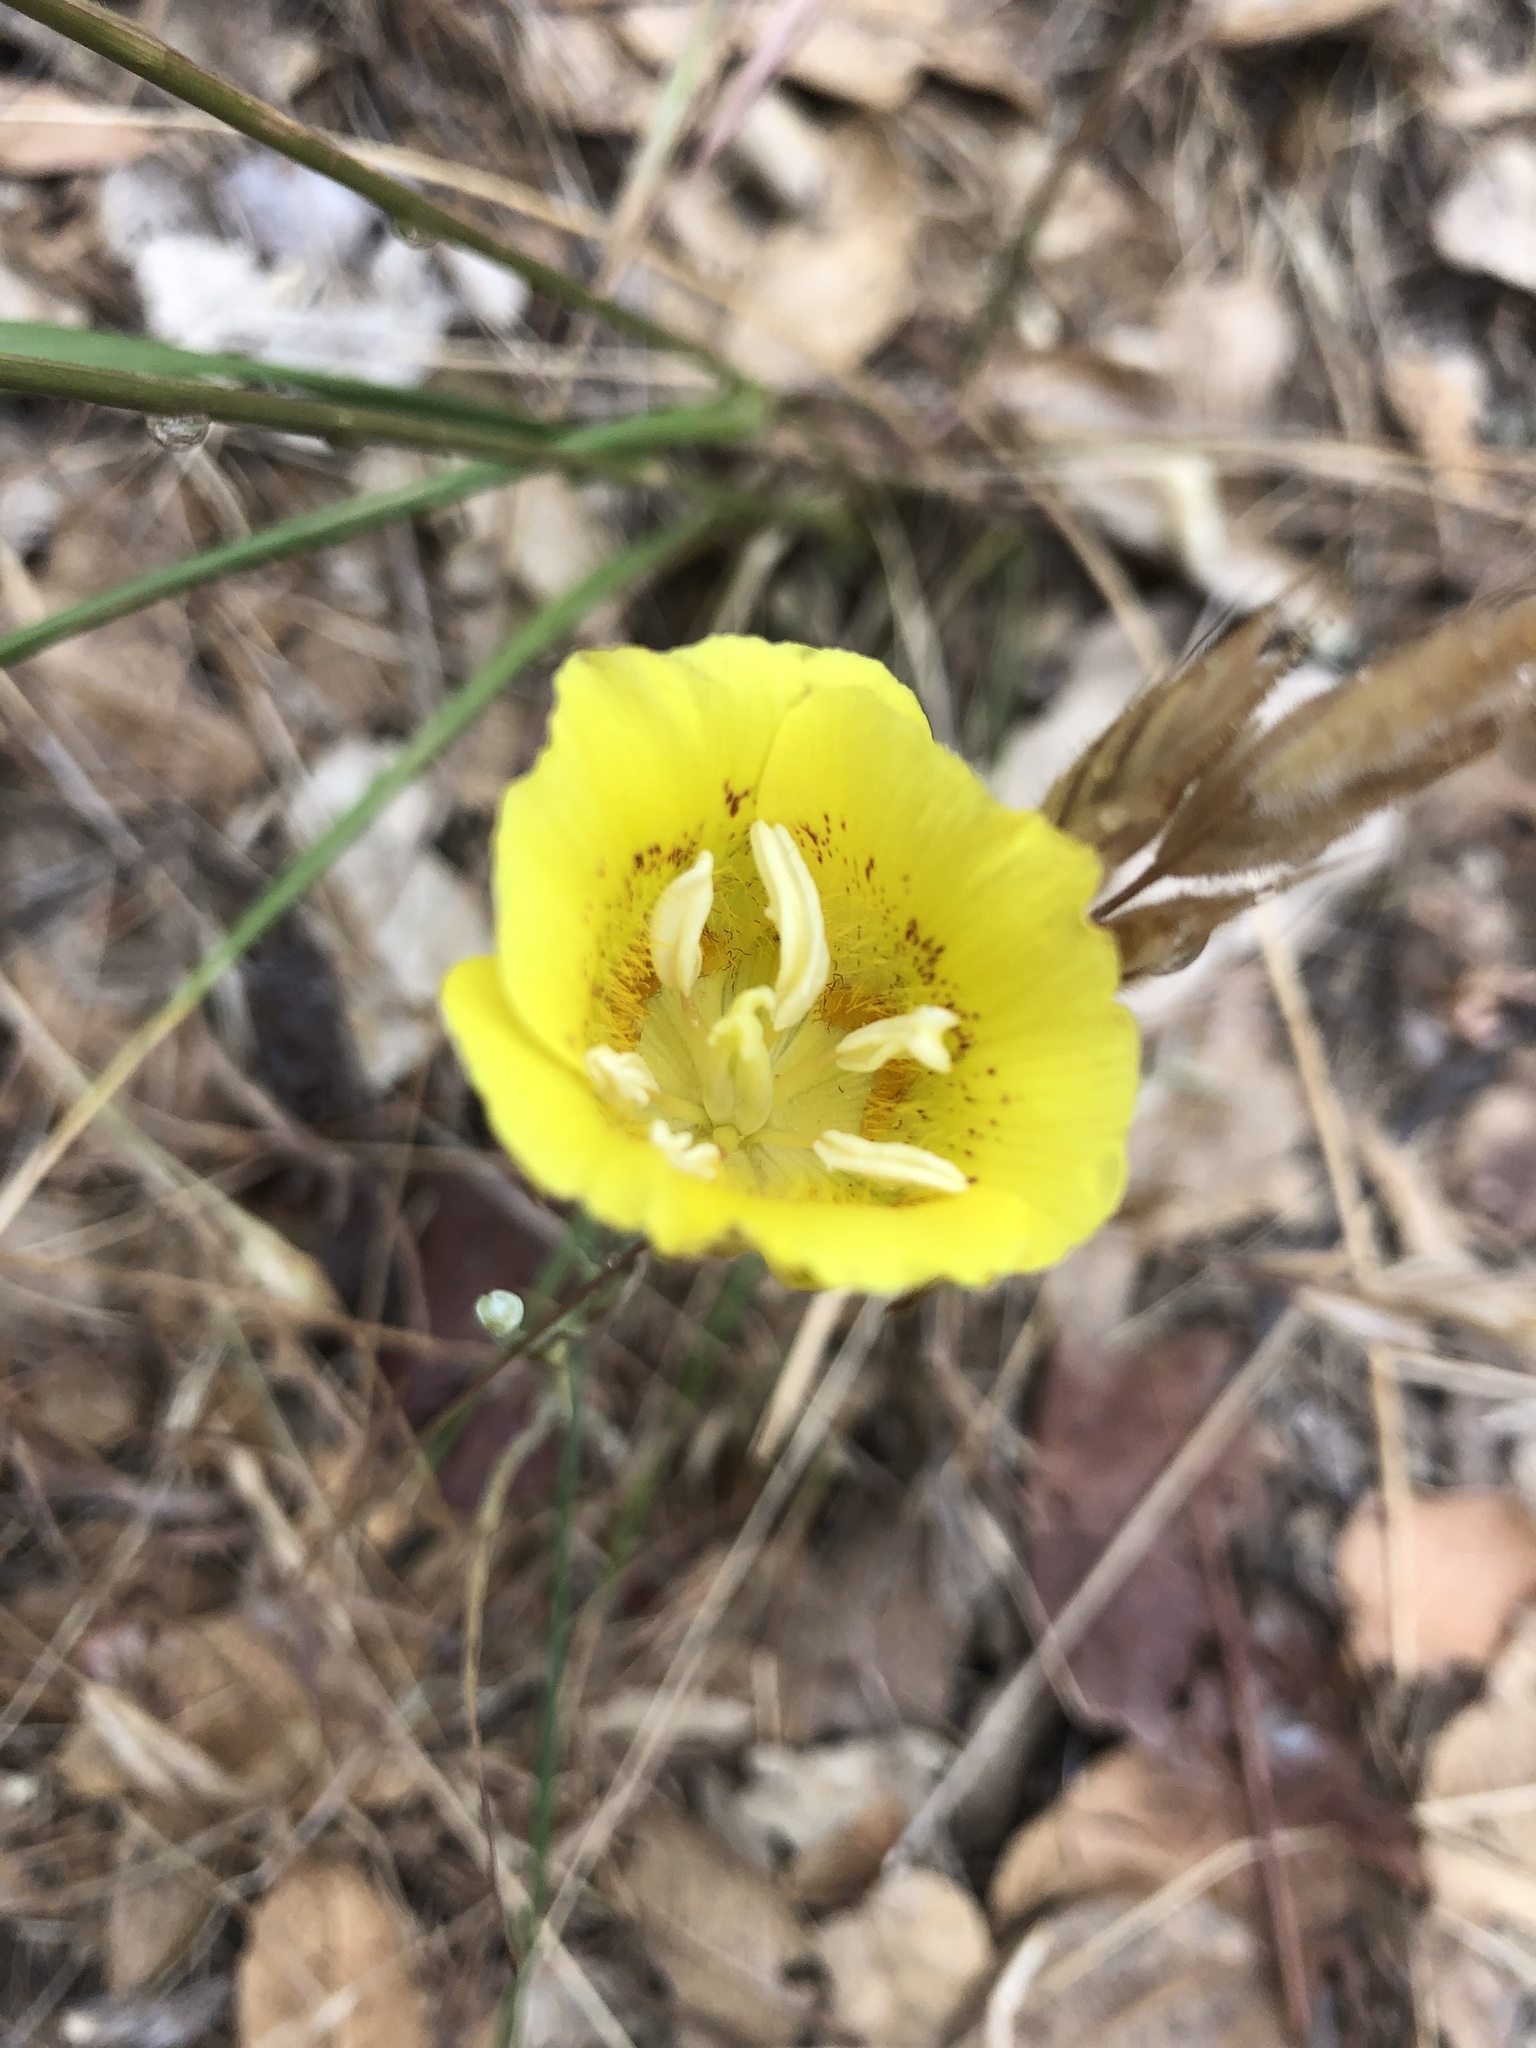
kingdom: Plantae
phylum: Tracheophyta
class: Liliopsida
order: Liliales
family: Liliaceae
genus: Calochortus
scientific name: Calochortus luteus
